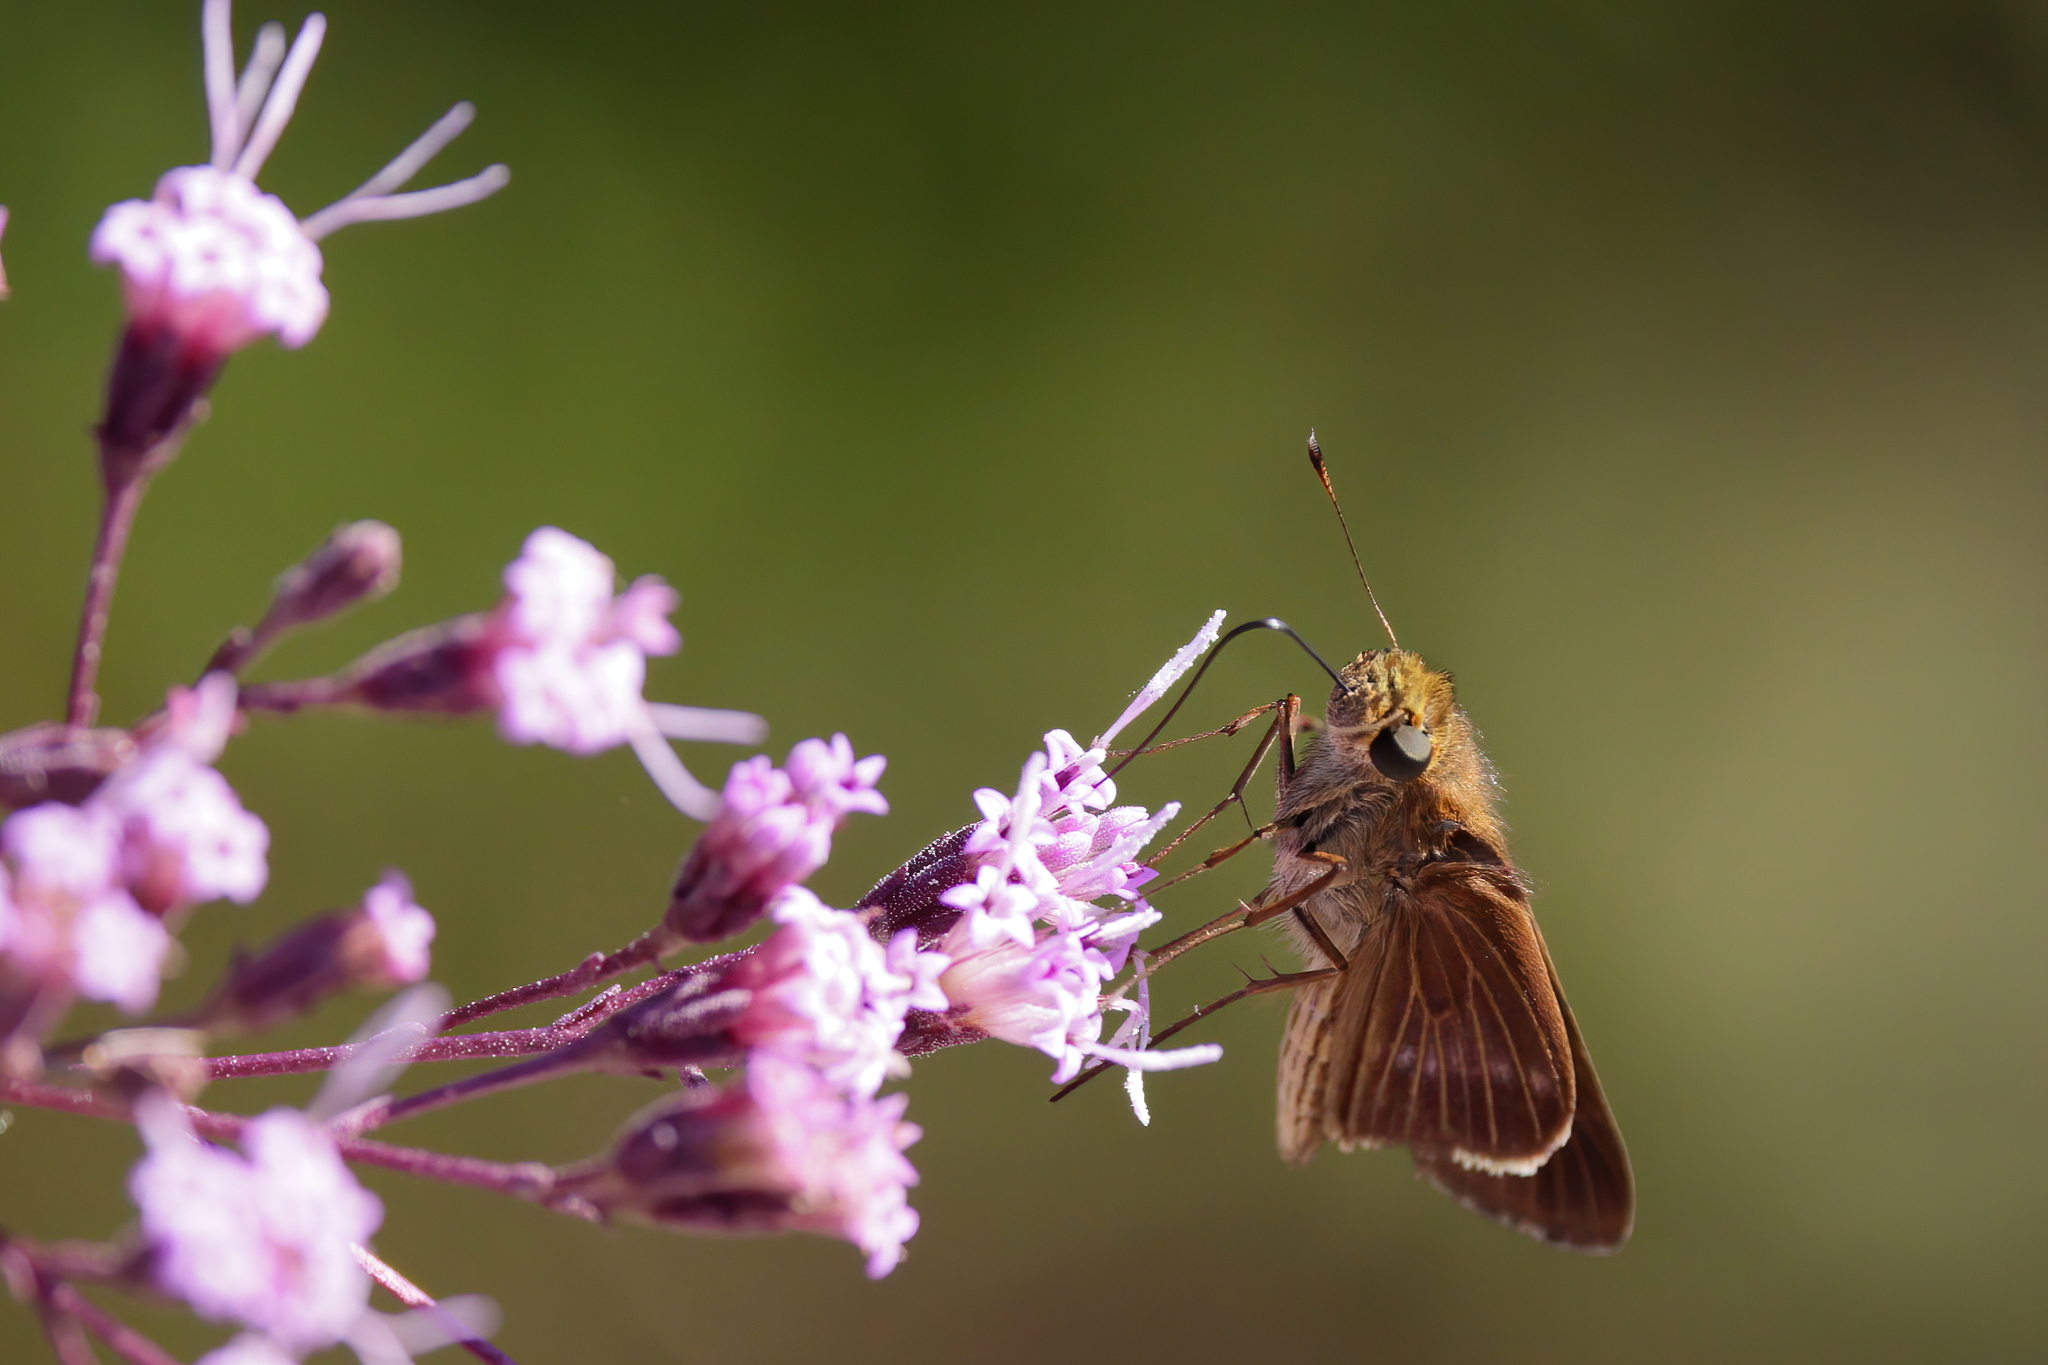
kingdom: Animalia
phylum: Arthropoda
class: Insecta
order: Lepidoptera
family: Hesperiidae
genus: Panoquina
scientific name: Panoquina ocola
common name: Ocola skipper
